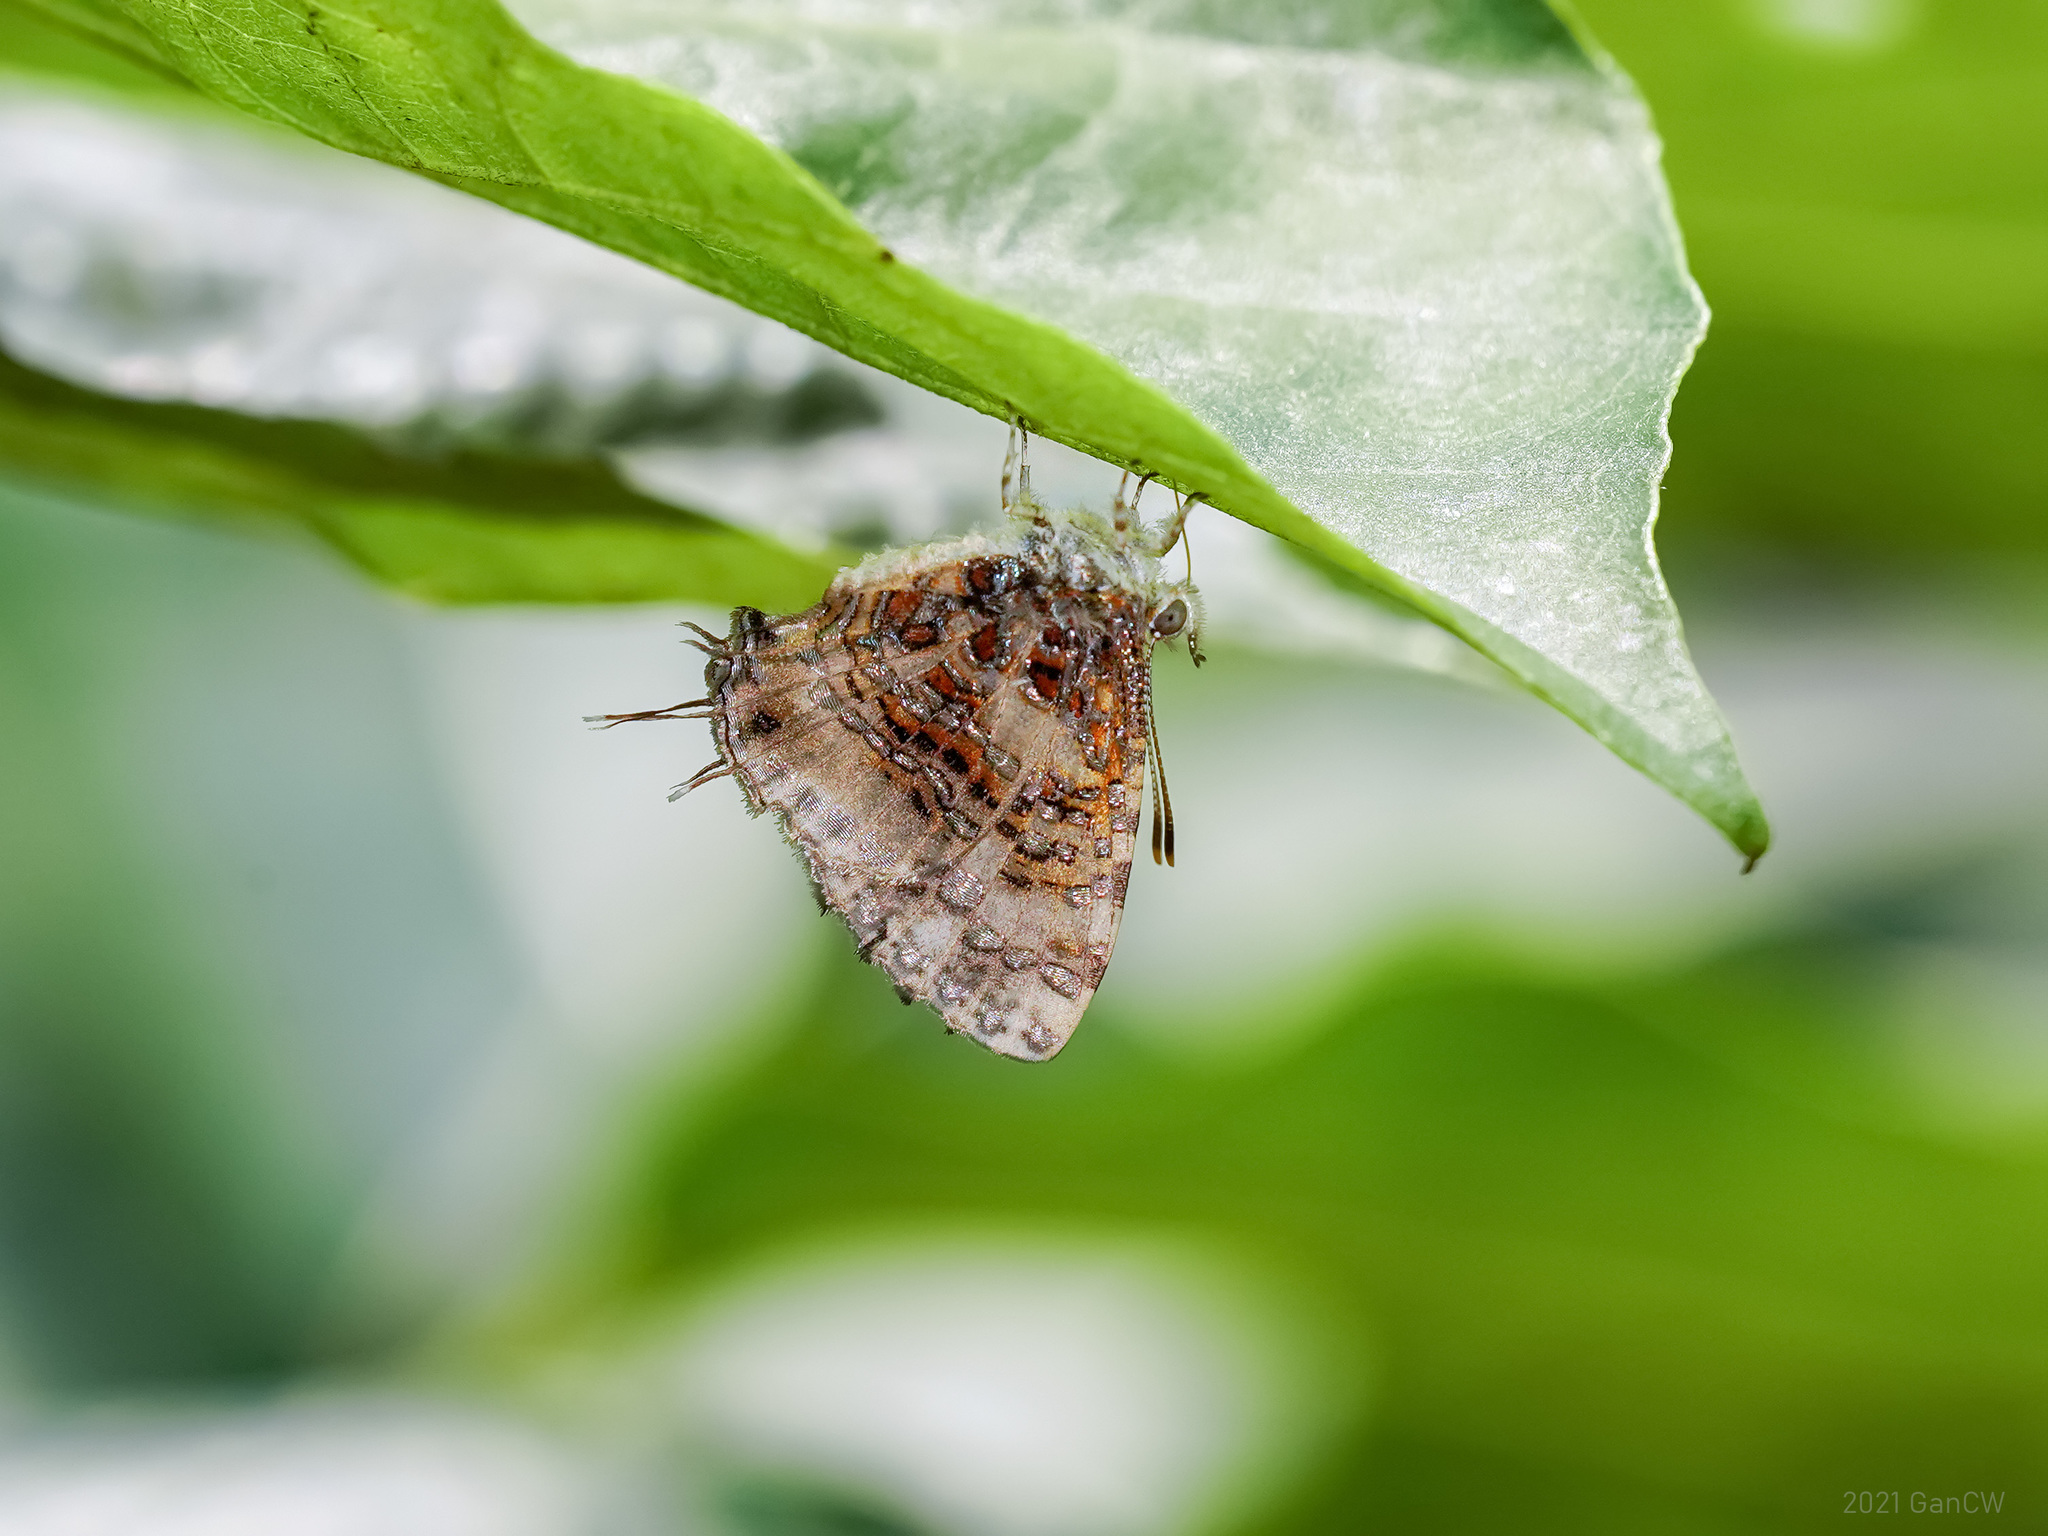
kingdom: Animalia
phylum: Arthropoda
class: Insecta
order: Lepidoptera
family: Lycaenidae
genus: Catapaecilma
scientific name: Catapaecilma major
